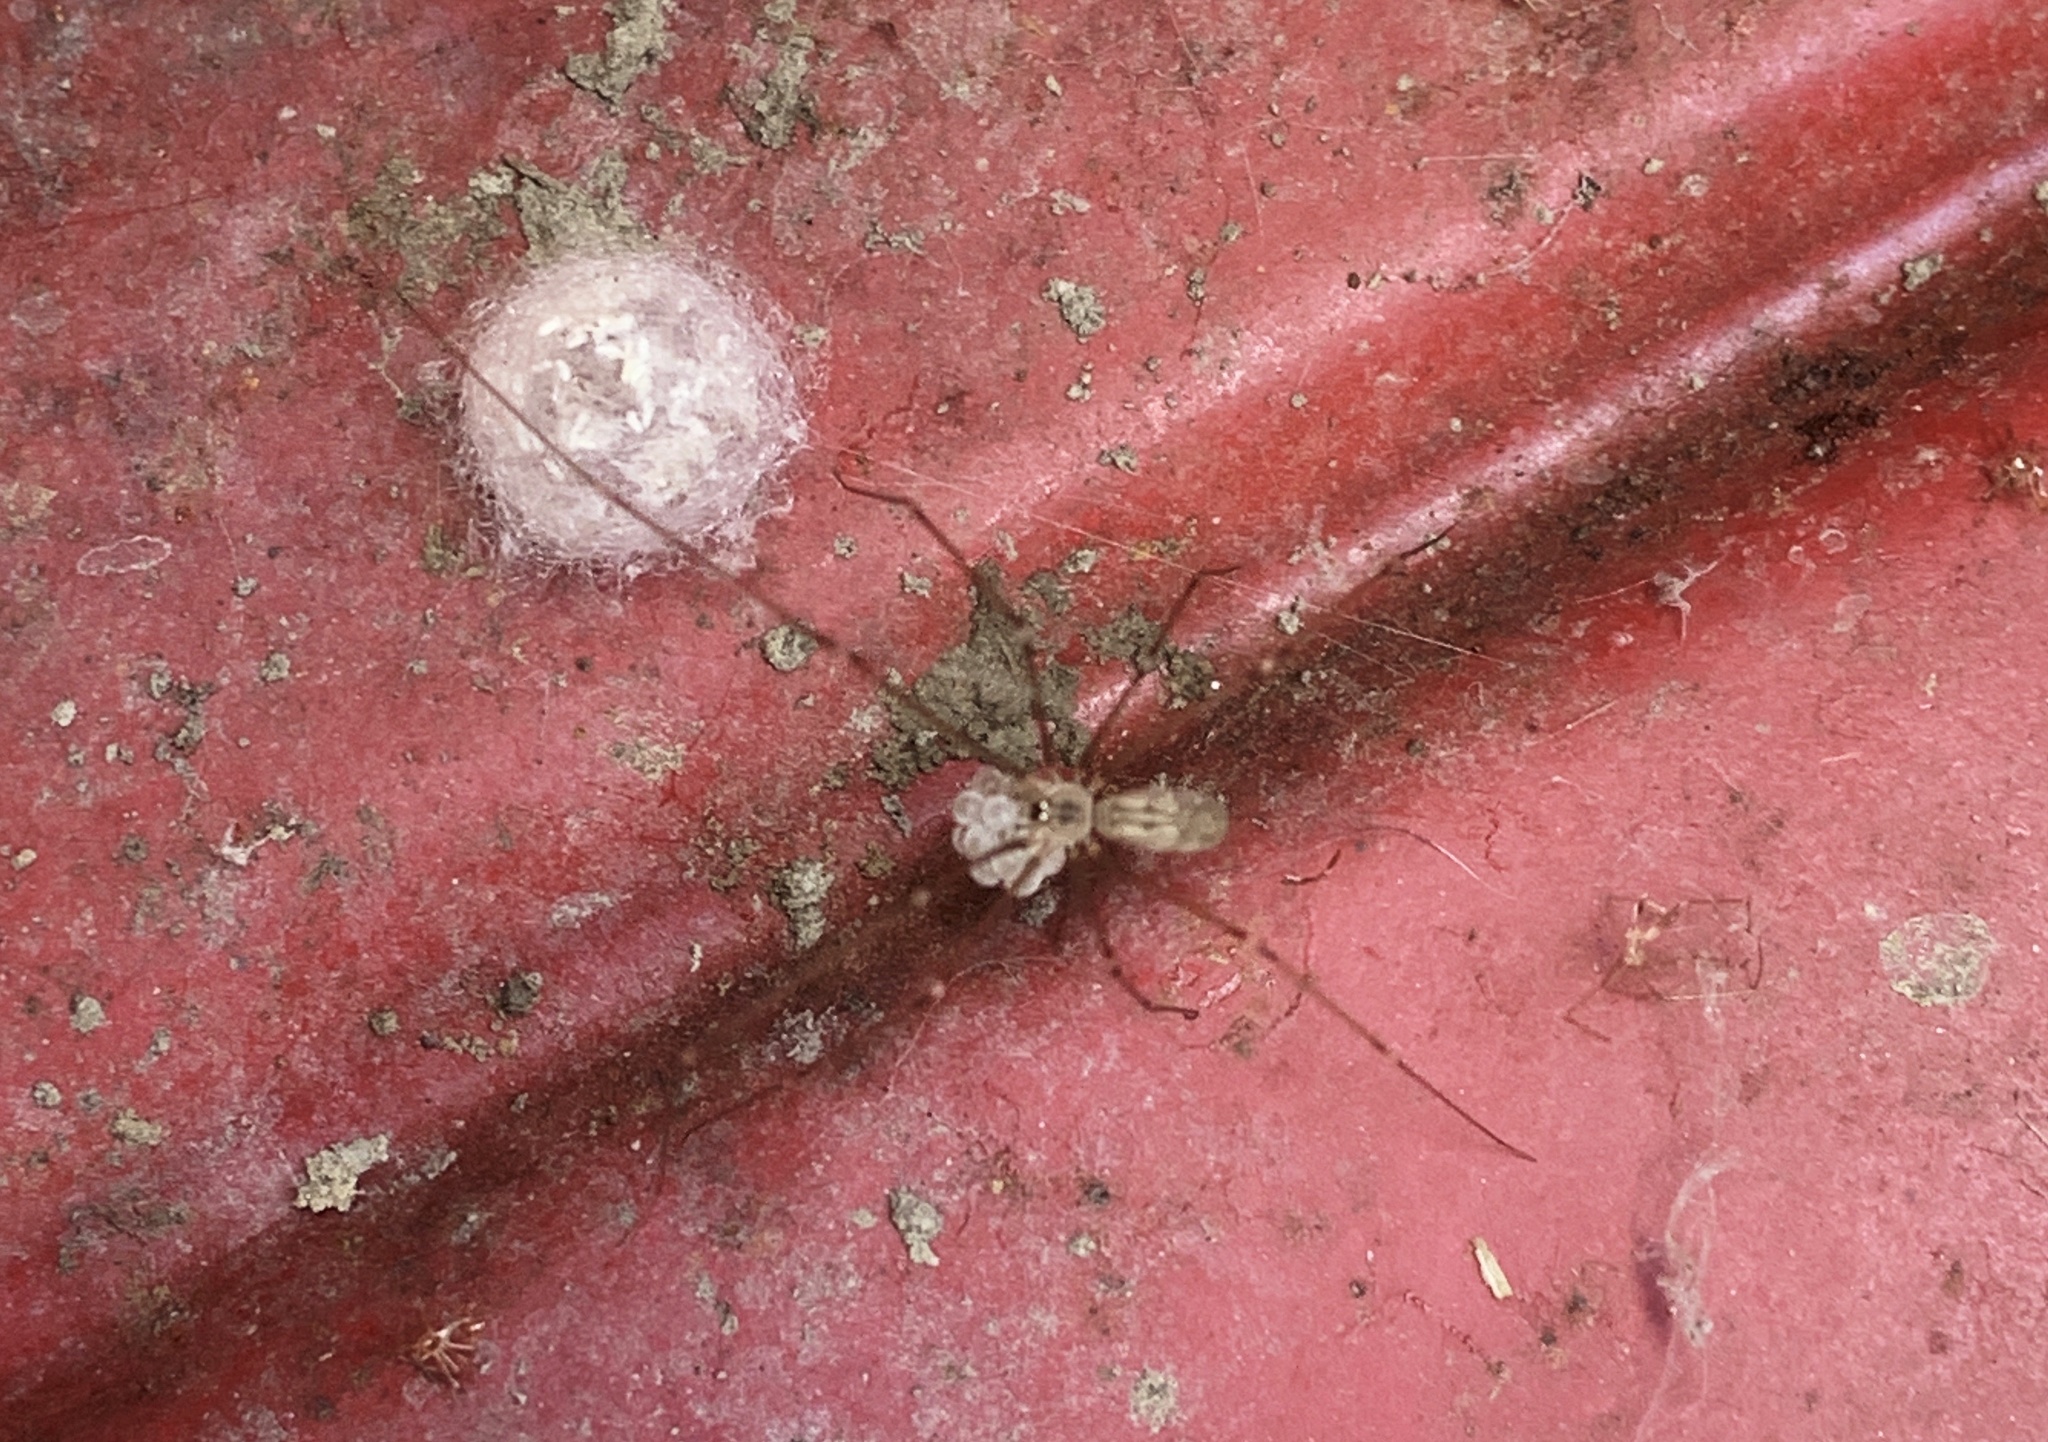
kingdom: Animalia
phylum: Arthropoda
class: Arachnida
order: Araneae
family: Pholcidae
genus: Pholcus
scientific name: Pholcus phalangioides
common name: Longbodied cellar spider
